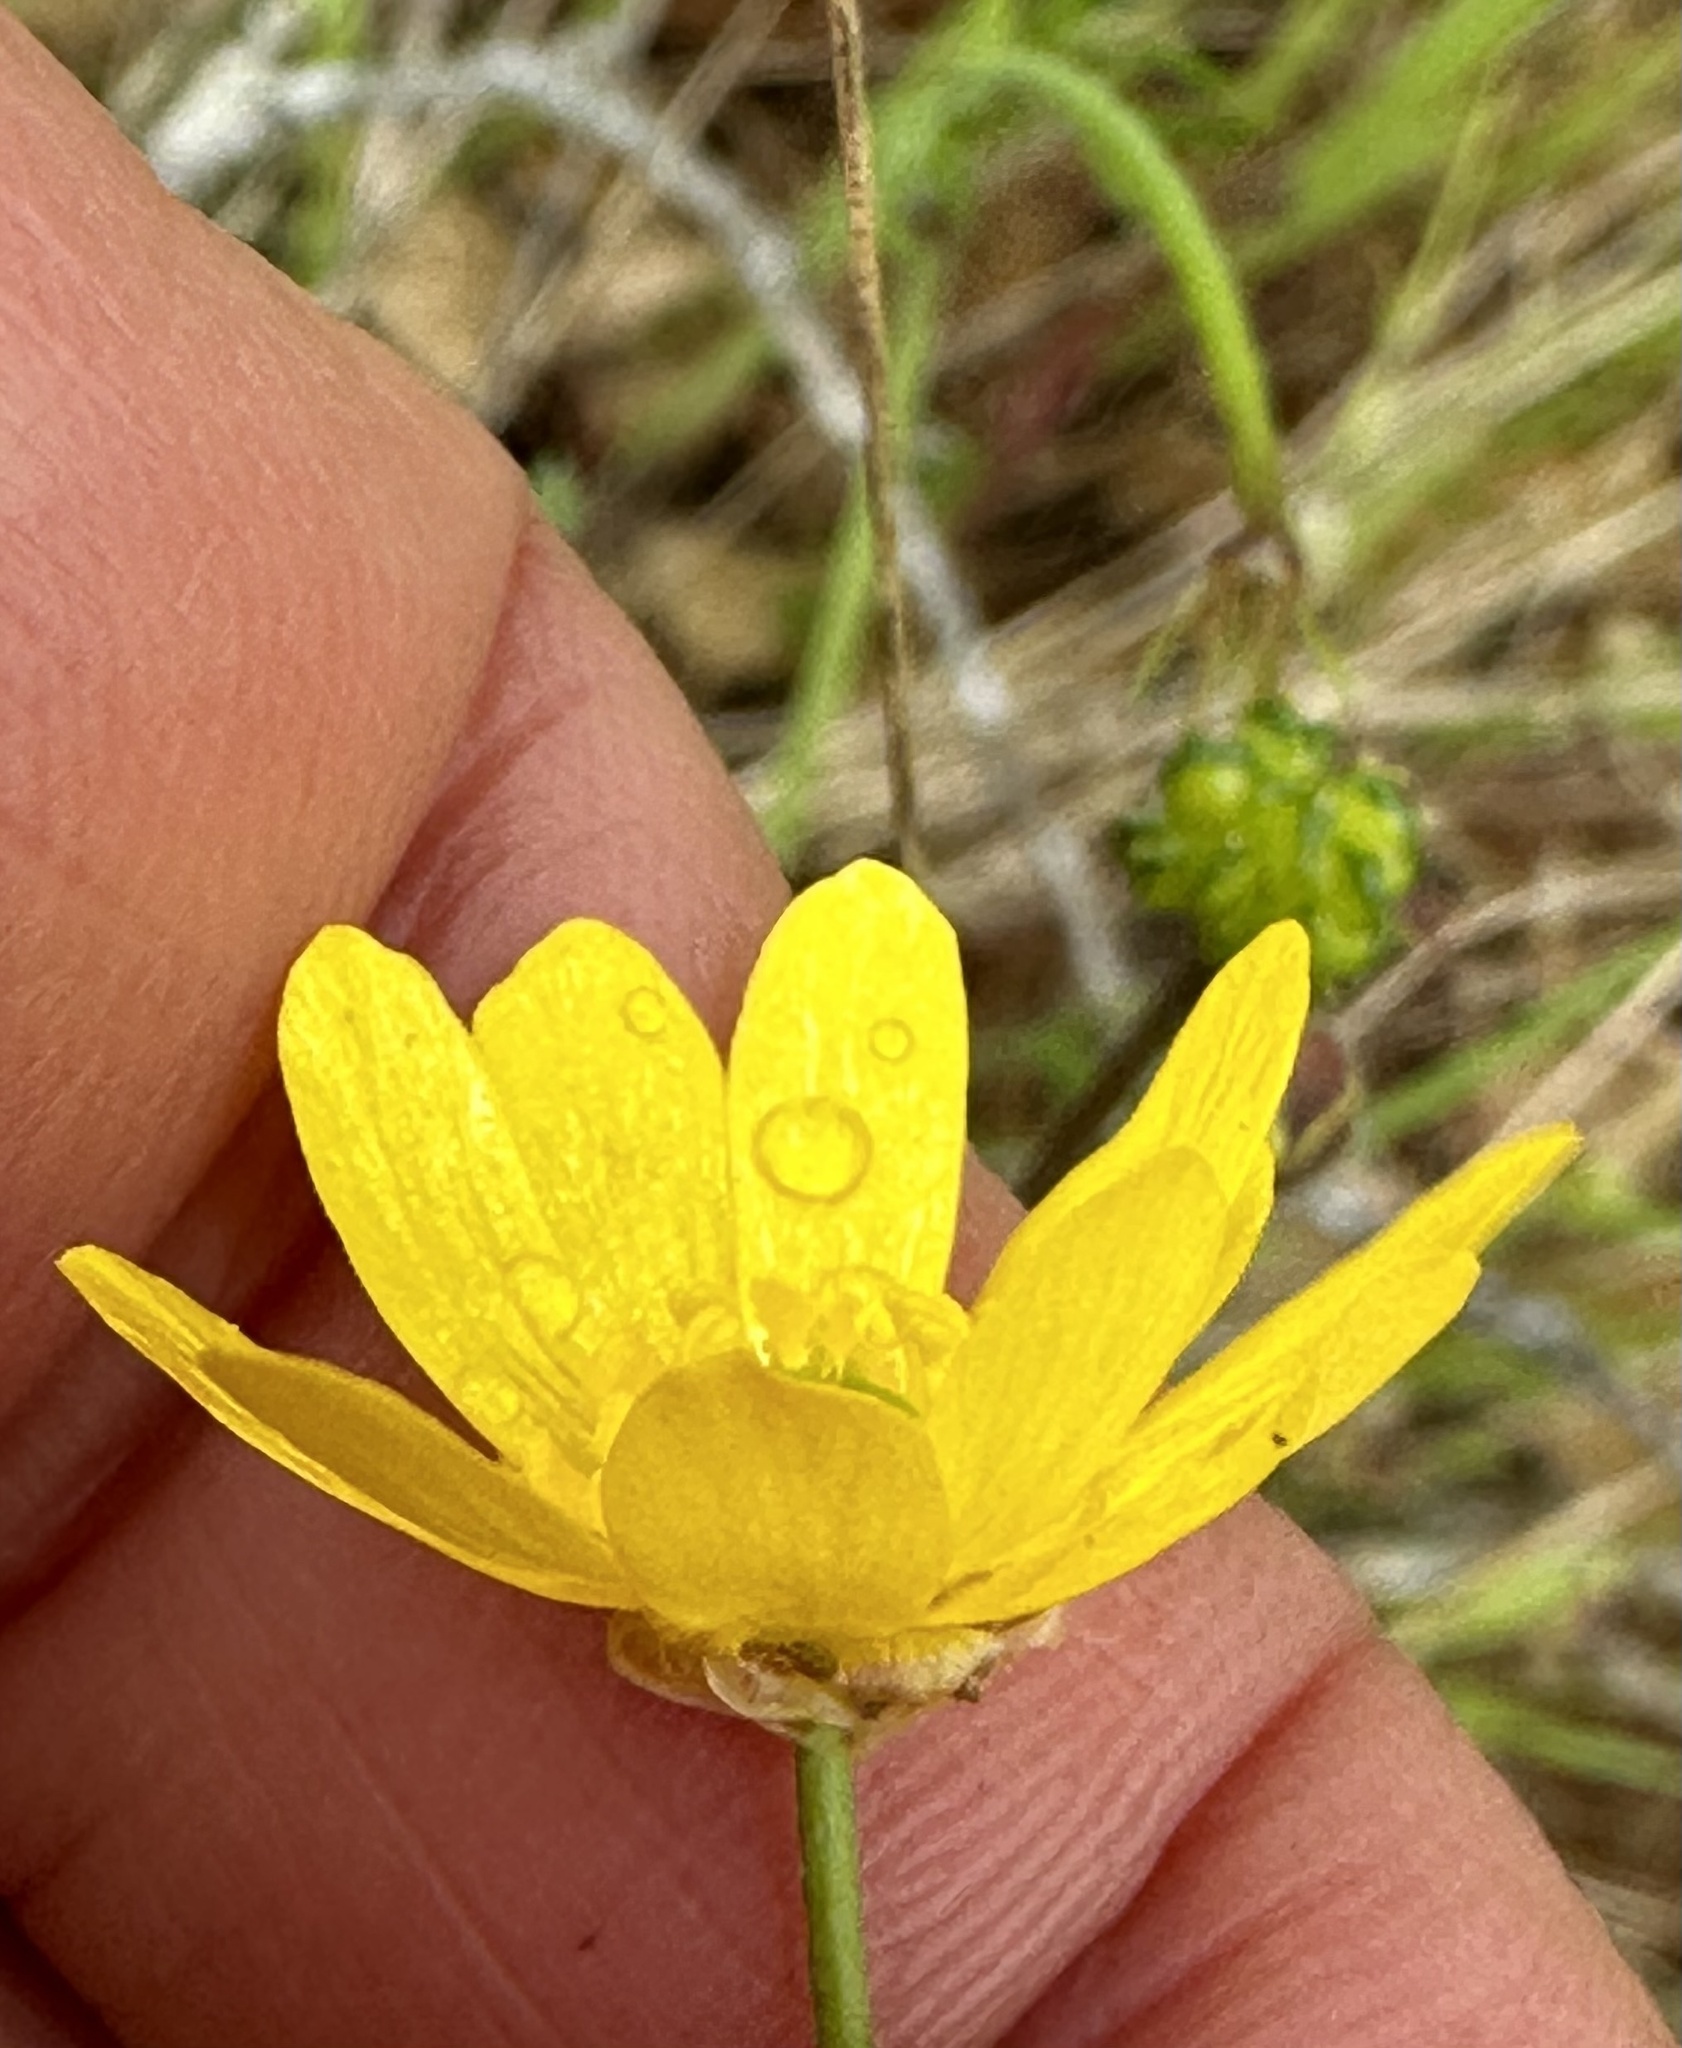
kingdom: Plantae
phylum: Tracheophyta
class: Magnoliopsida
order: Ranunculales
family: Ranunculaceae
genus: Ranunculus
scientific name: Ranunculus californicus
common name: California buttercup
